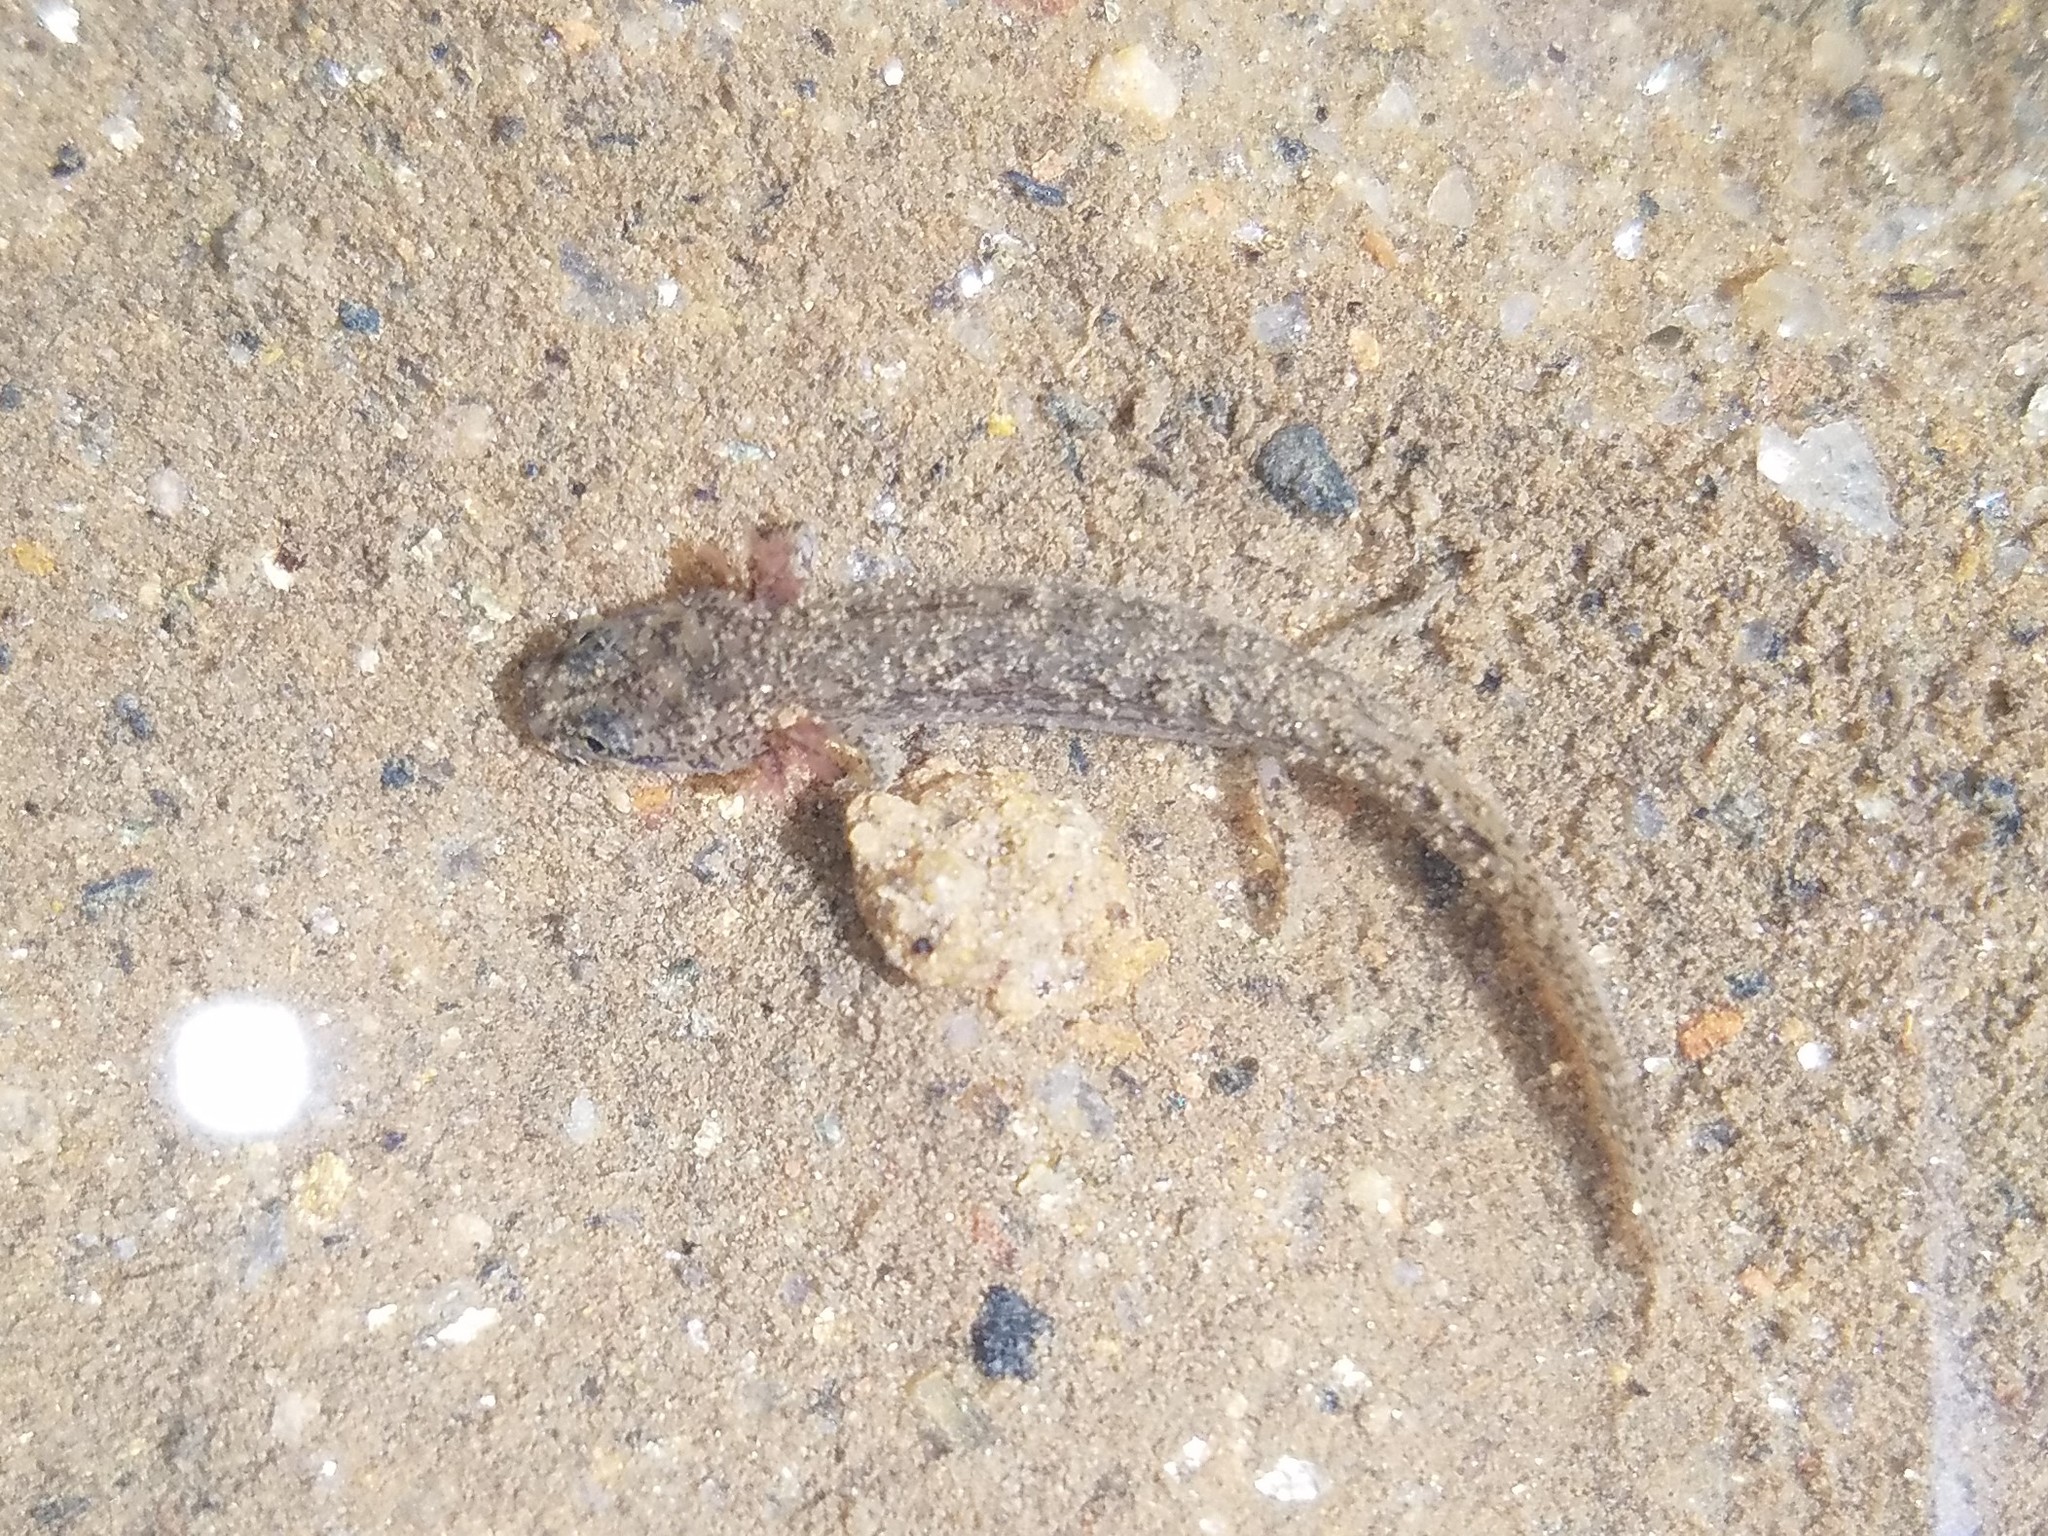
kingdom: Animalia
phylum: Chordata
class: Amphibia
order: Caudata
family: Plethodontidae
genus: Eurycea
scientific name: Eurycea cirrigera
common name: Southern two-lined salamander
